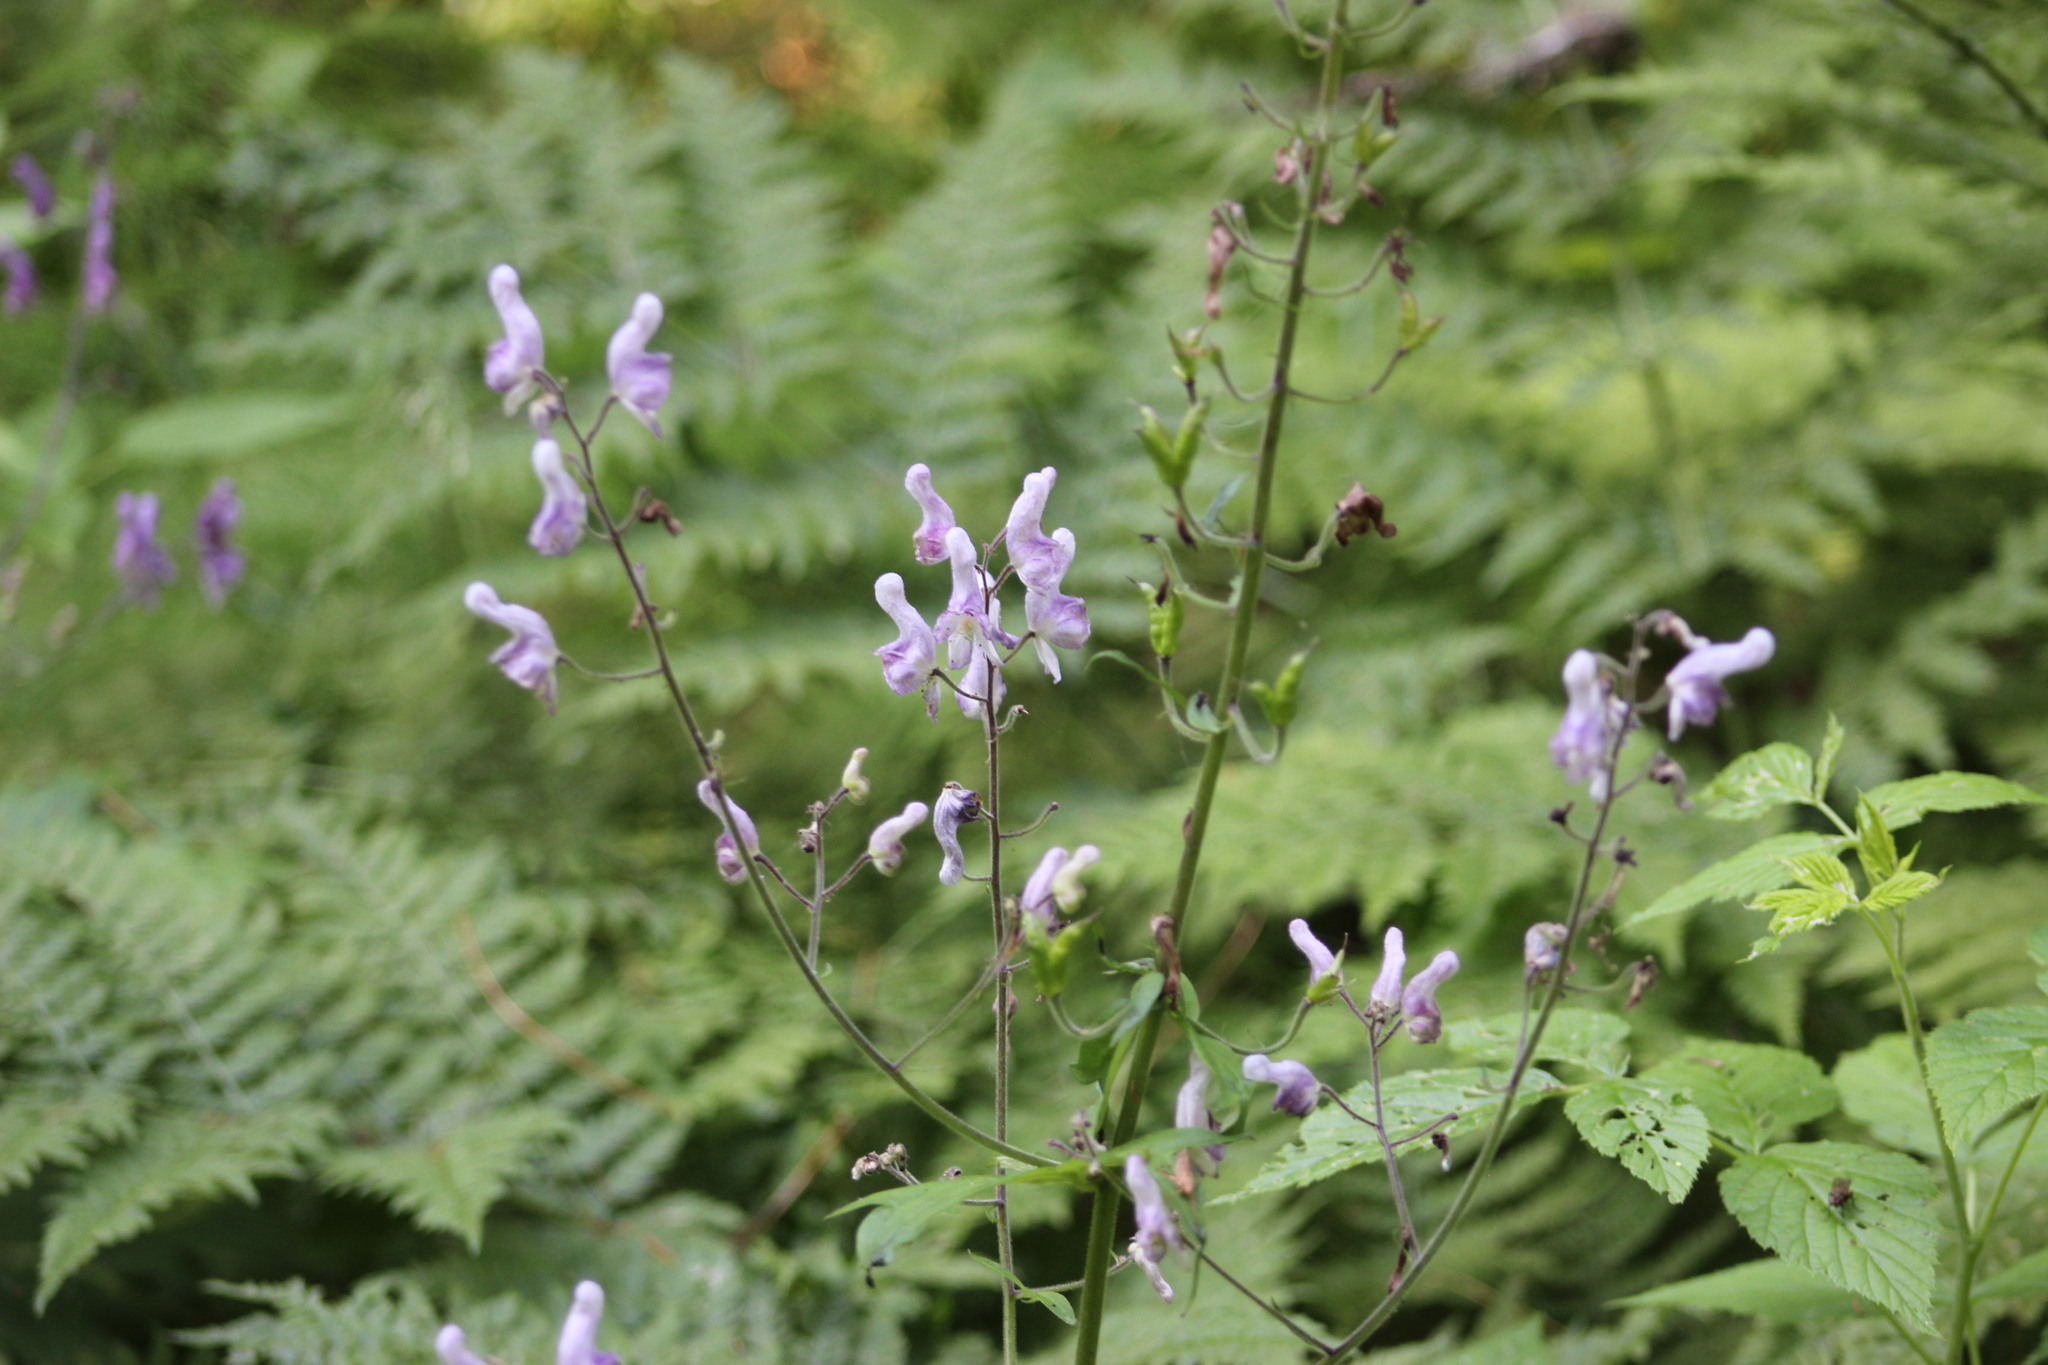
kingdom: Plantae
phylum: Tracheophyta
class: Magnoliopsida
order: Ranunculales
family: Ranunculaceae
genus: Aconitum
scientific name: Aconitum septentrionale
